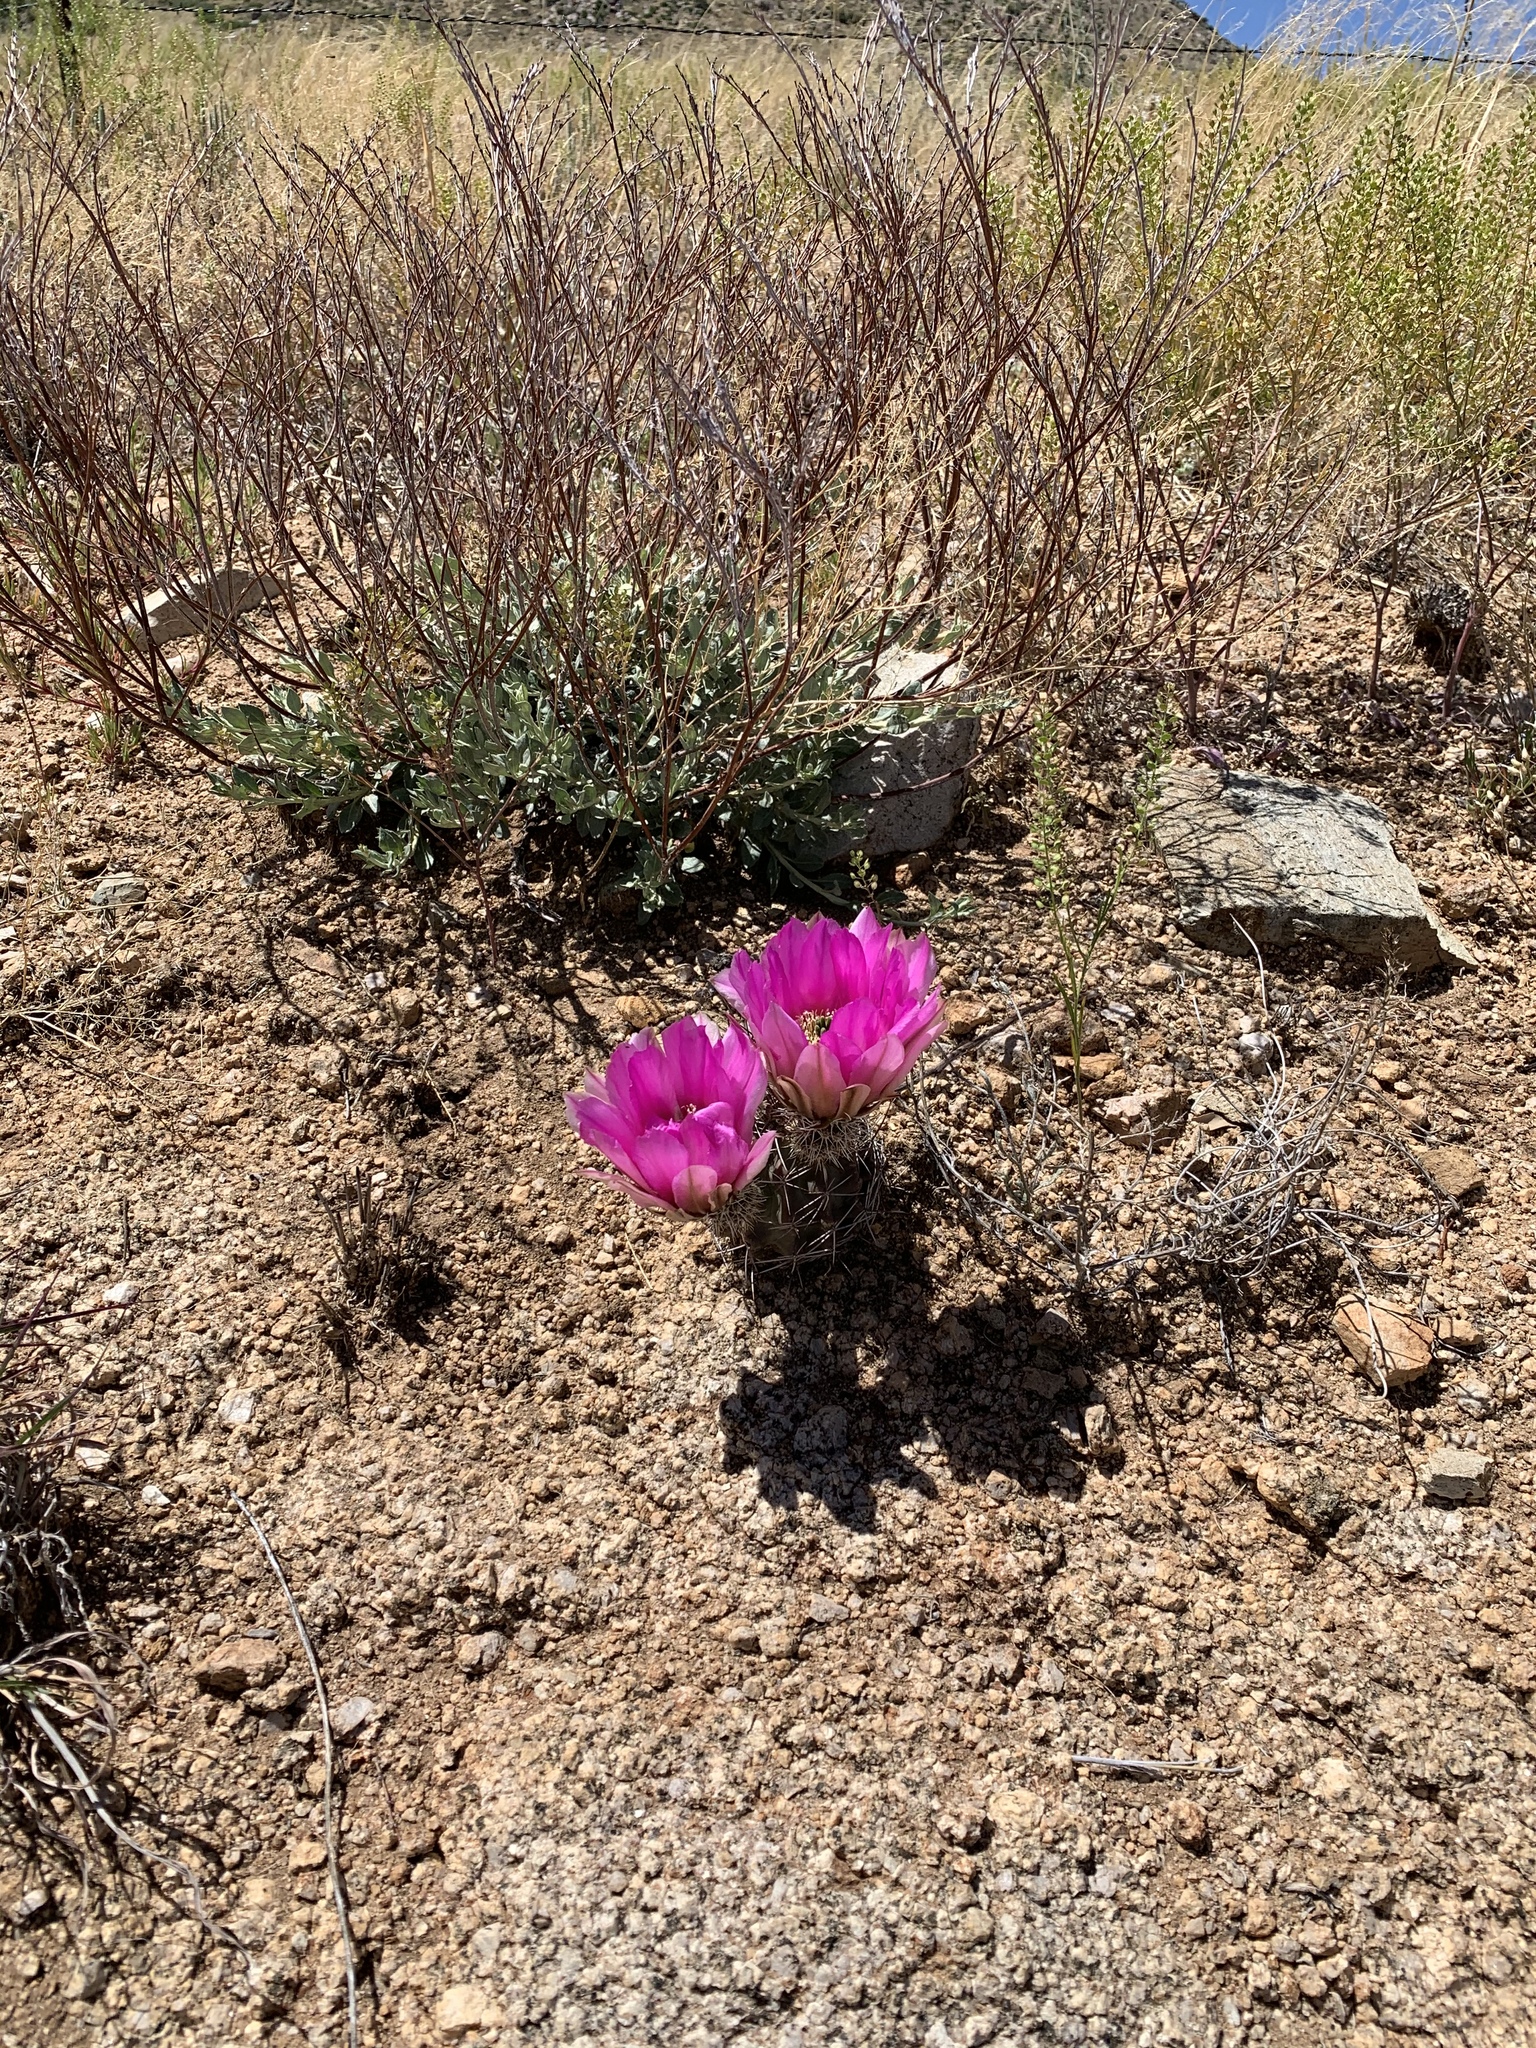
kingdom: Plantae
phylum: Tracheophyta
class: Magnoliopsida
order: Caryophyllales
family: Cactaceae
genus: Echinocereus
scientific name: Echinocereus fendleri
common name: Fendler's hedgehog cactus
